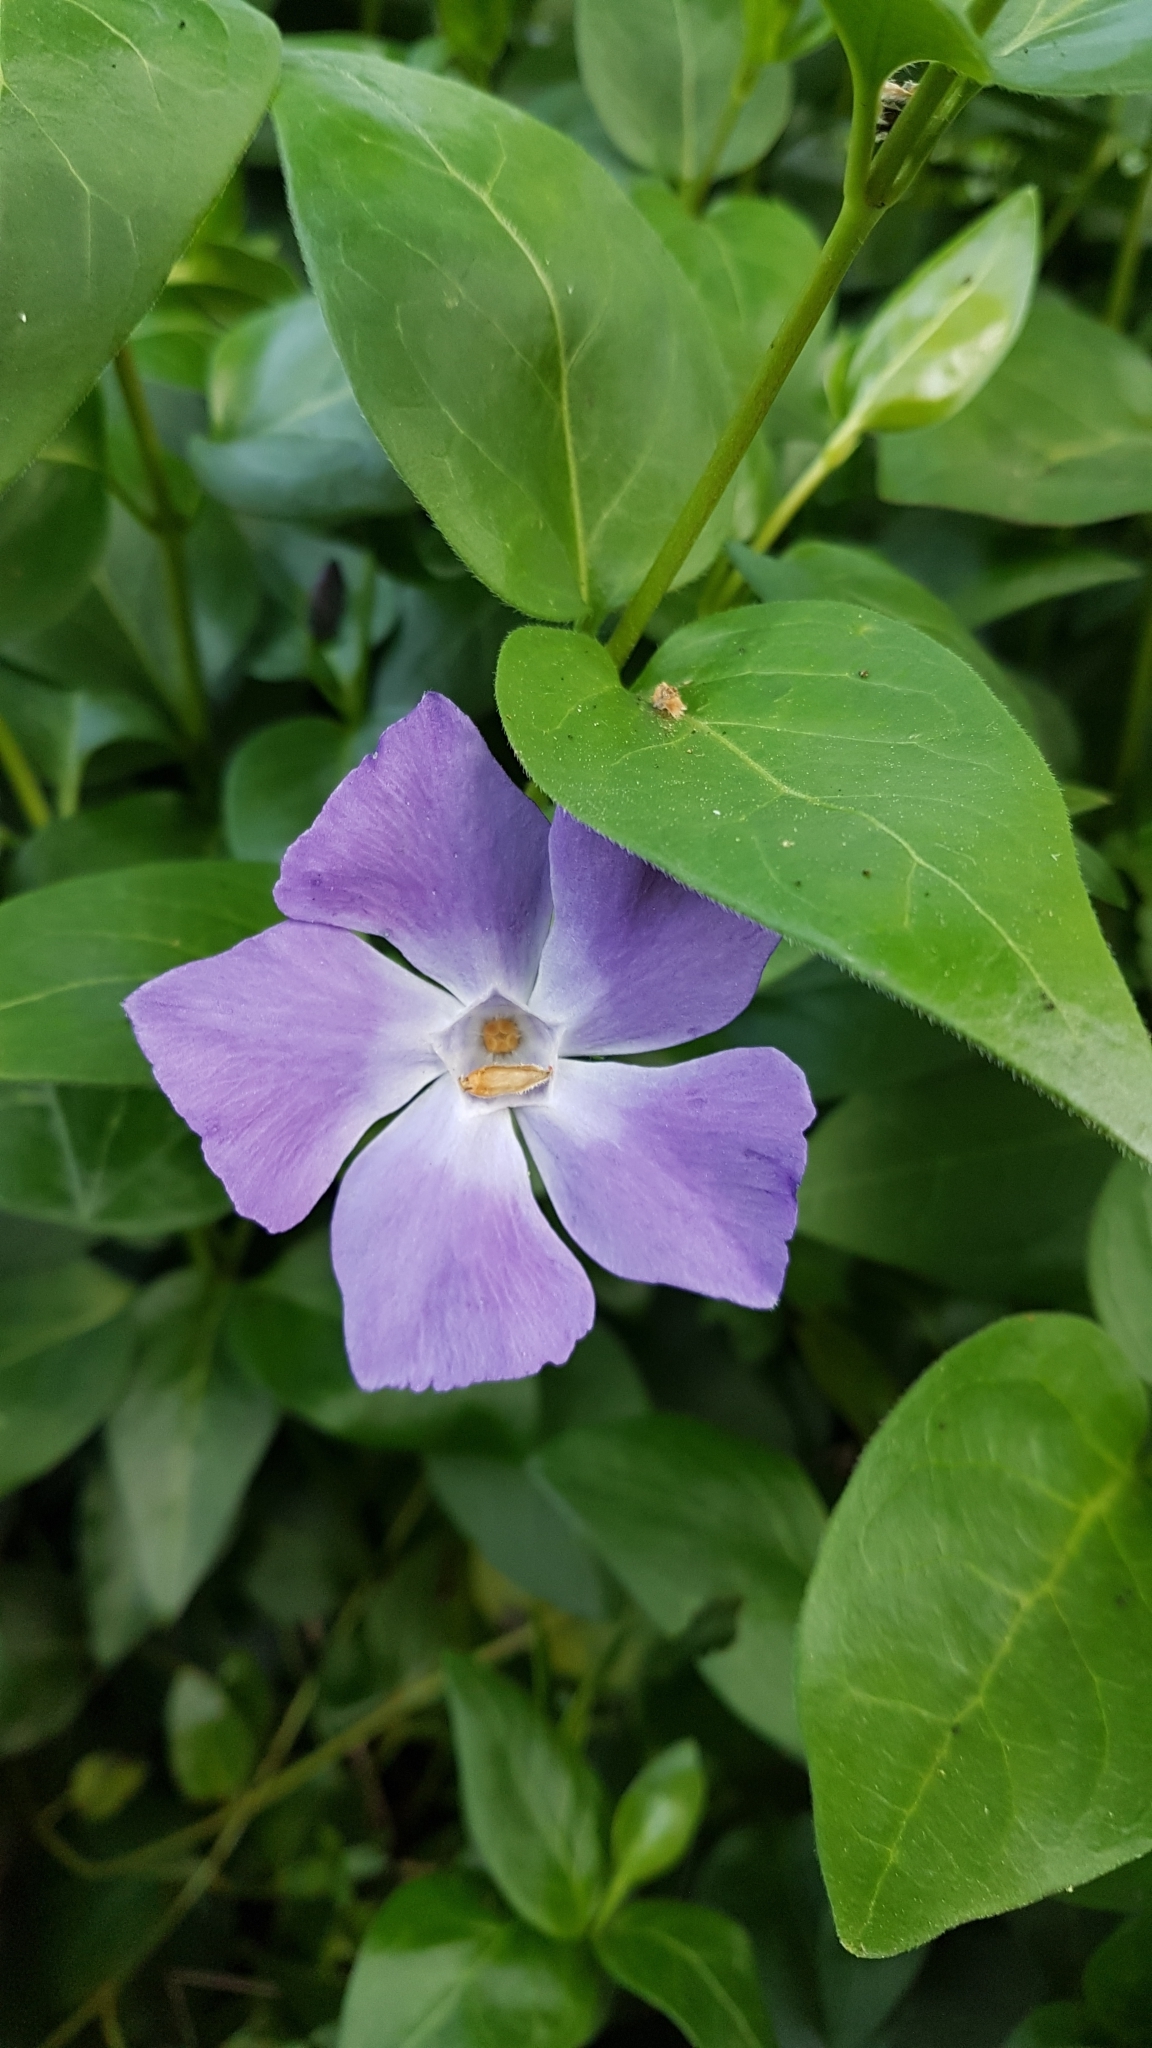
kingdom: Plantae
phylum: Tracheophyta
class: Magnoliopsida
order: Gentianales
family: Apocynaceae
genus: Vinca
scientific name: Vinca major
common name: Greater periwinkle
